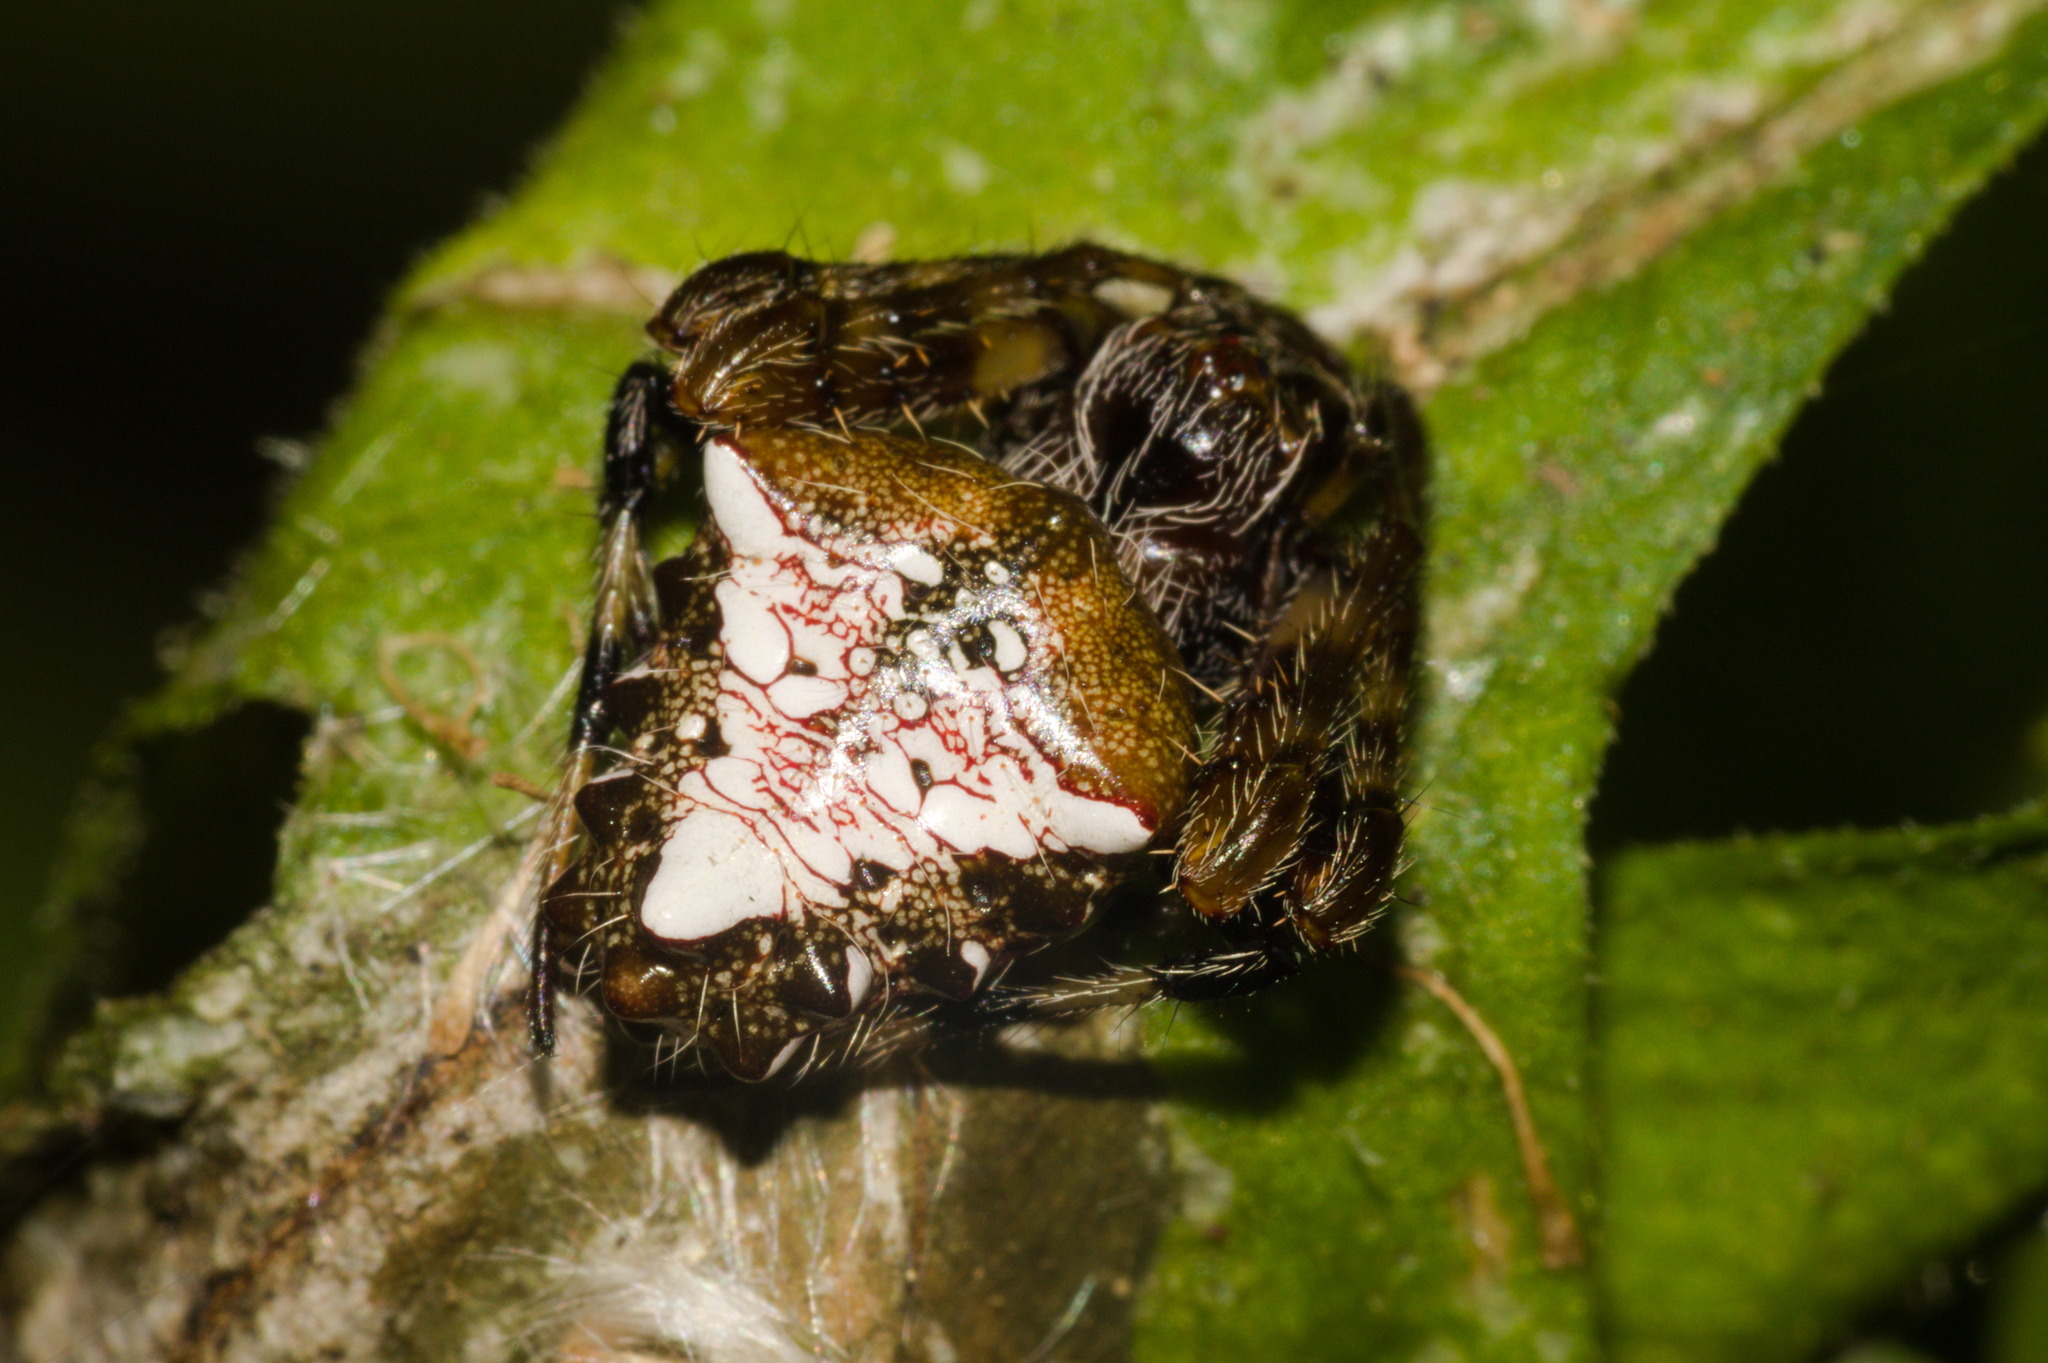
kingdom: Animalia
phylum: Arthropoda
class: Arachnida
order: Araneae
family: Araneidae
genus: Verrucosa
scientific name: Verrucosa meridionalis
